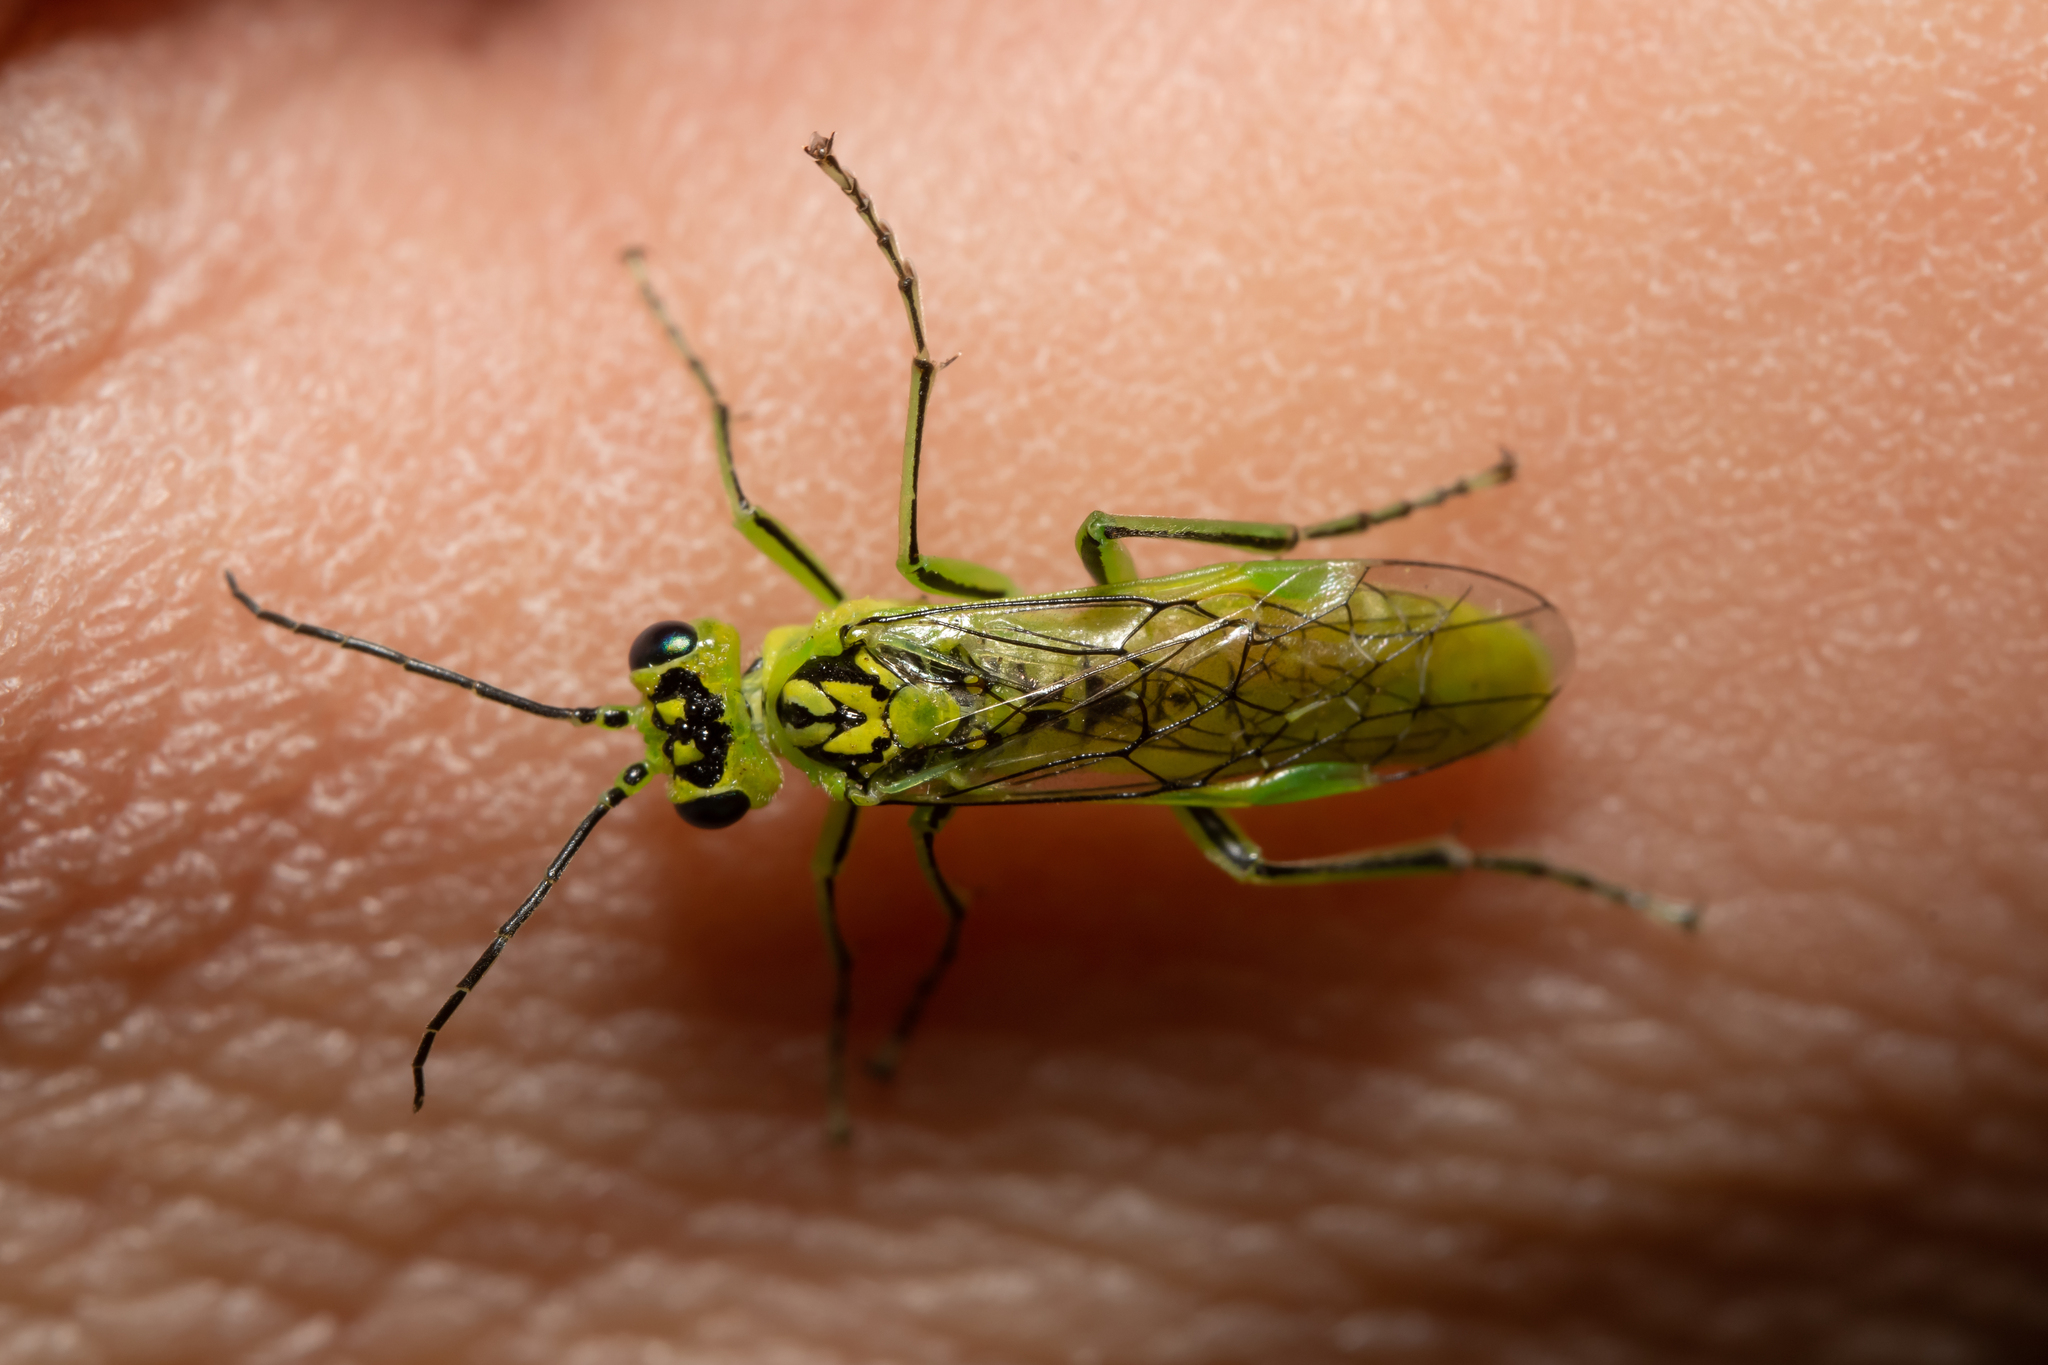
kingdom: Animalia
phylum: Arthropoda
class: Insecta
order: Hymenoptera
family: Tenthredinidae
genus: Rhogogaster
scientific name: Rhogogaster chlorosoma
